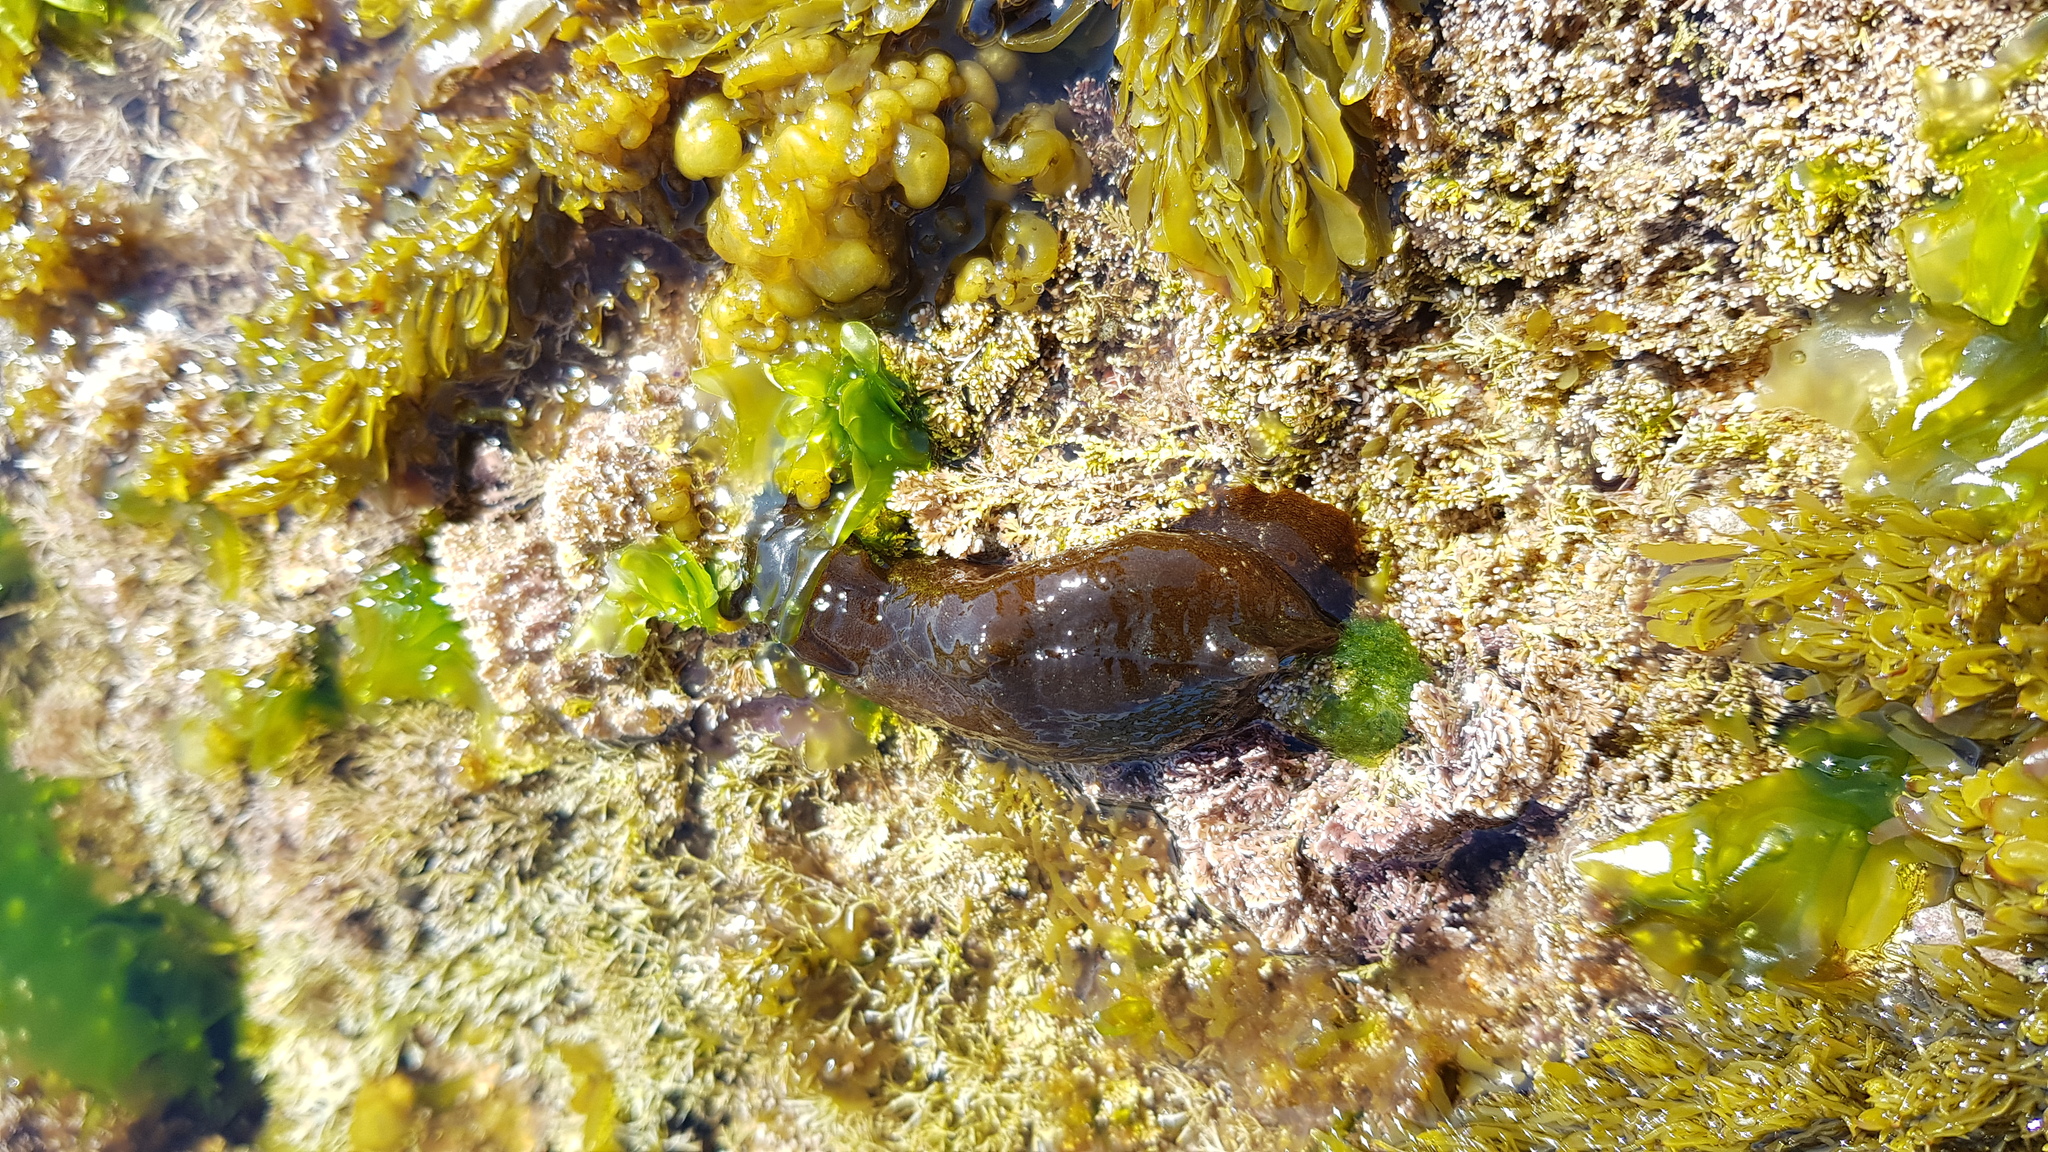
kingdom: Animalia
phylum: Mollusca
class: Gastropoda
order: Aplysiida
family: Aplysiidae
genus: Aplysia
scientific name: Aplysia juliana
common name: Walking sea hare
